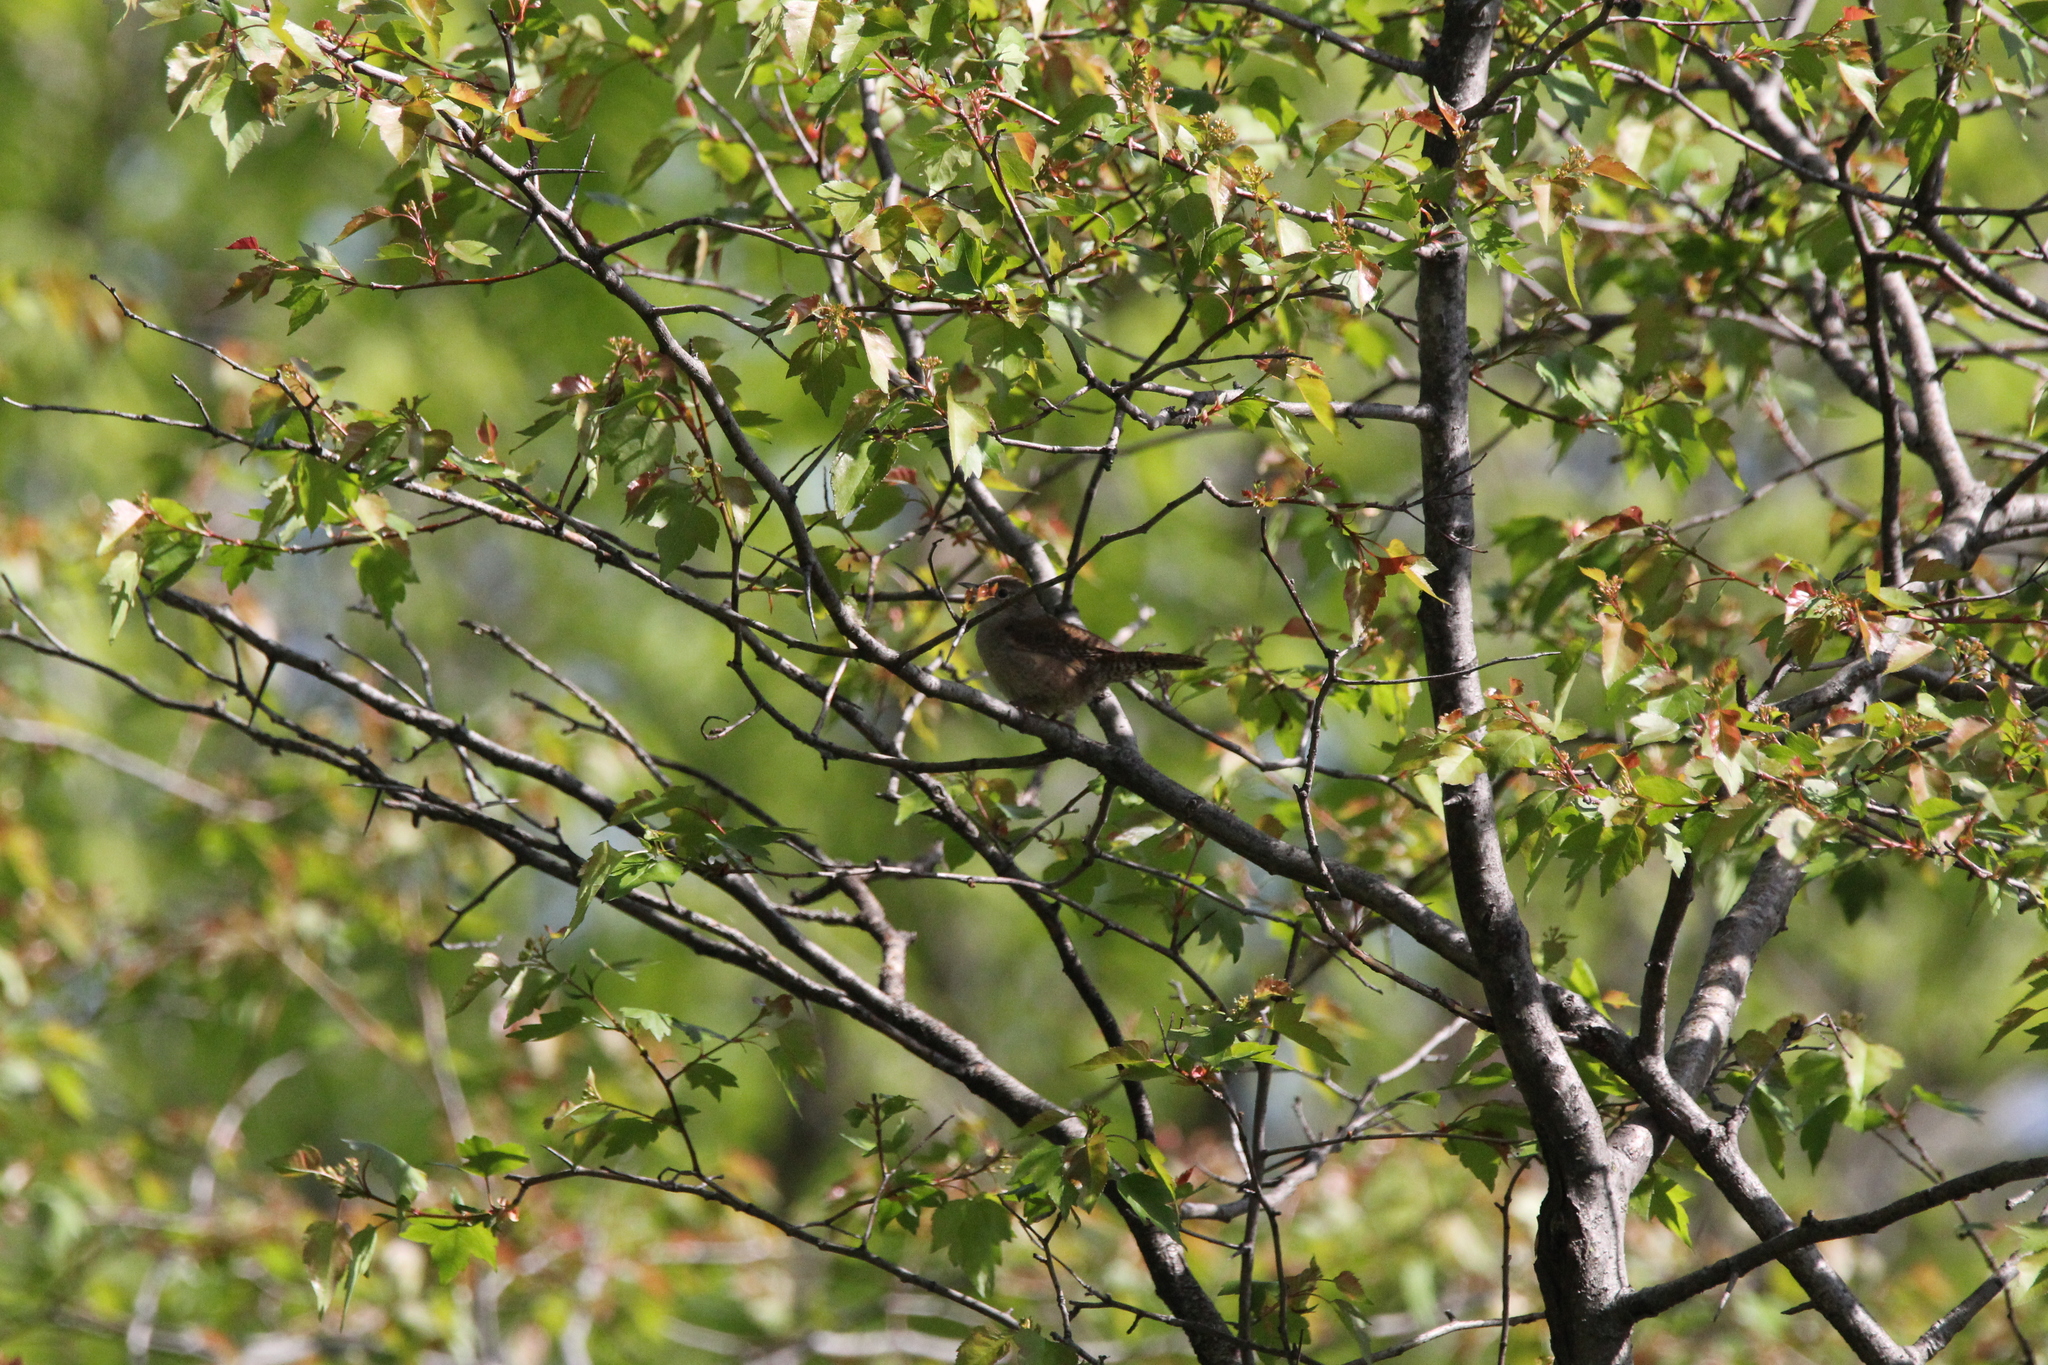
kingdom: Animalia
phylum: Chordata
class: Aves
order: Passeriformes
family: Troglodytidae
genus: Troglodytes
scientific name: Troglodytes aedon
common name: House wren
